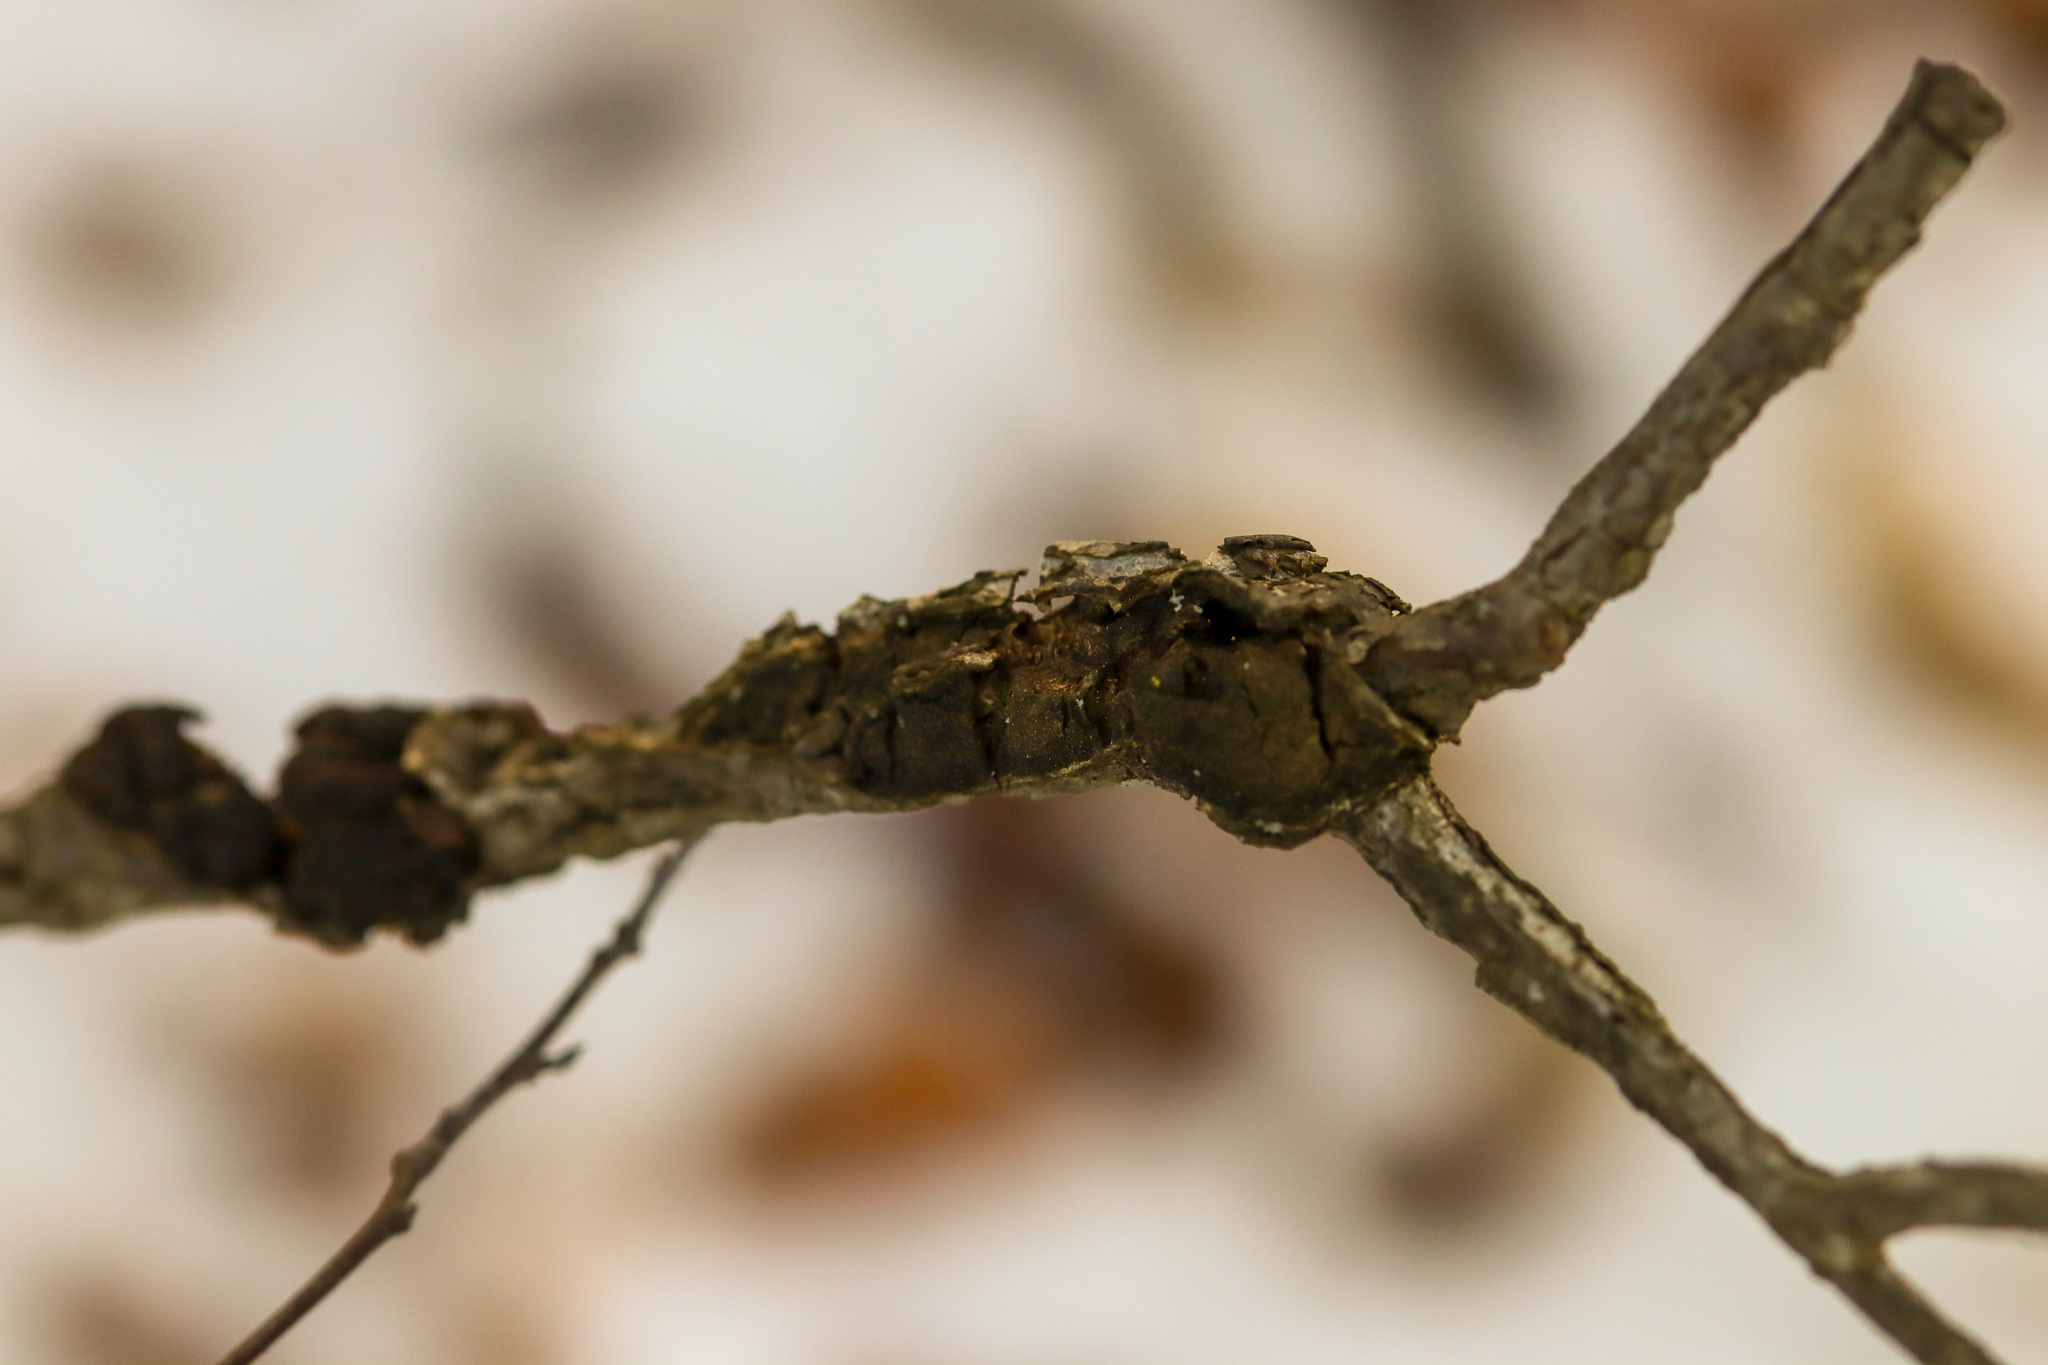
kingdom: Fungi
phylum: Ascomycota
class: Dothideomycetes
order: Venturiales
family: Venturiaceae
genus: Apiosporina
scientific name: Apiosporina morbosa
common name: Black knot
